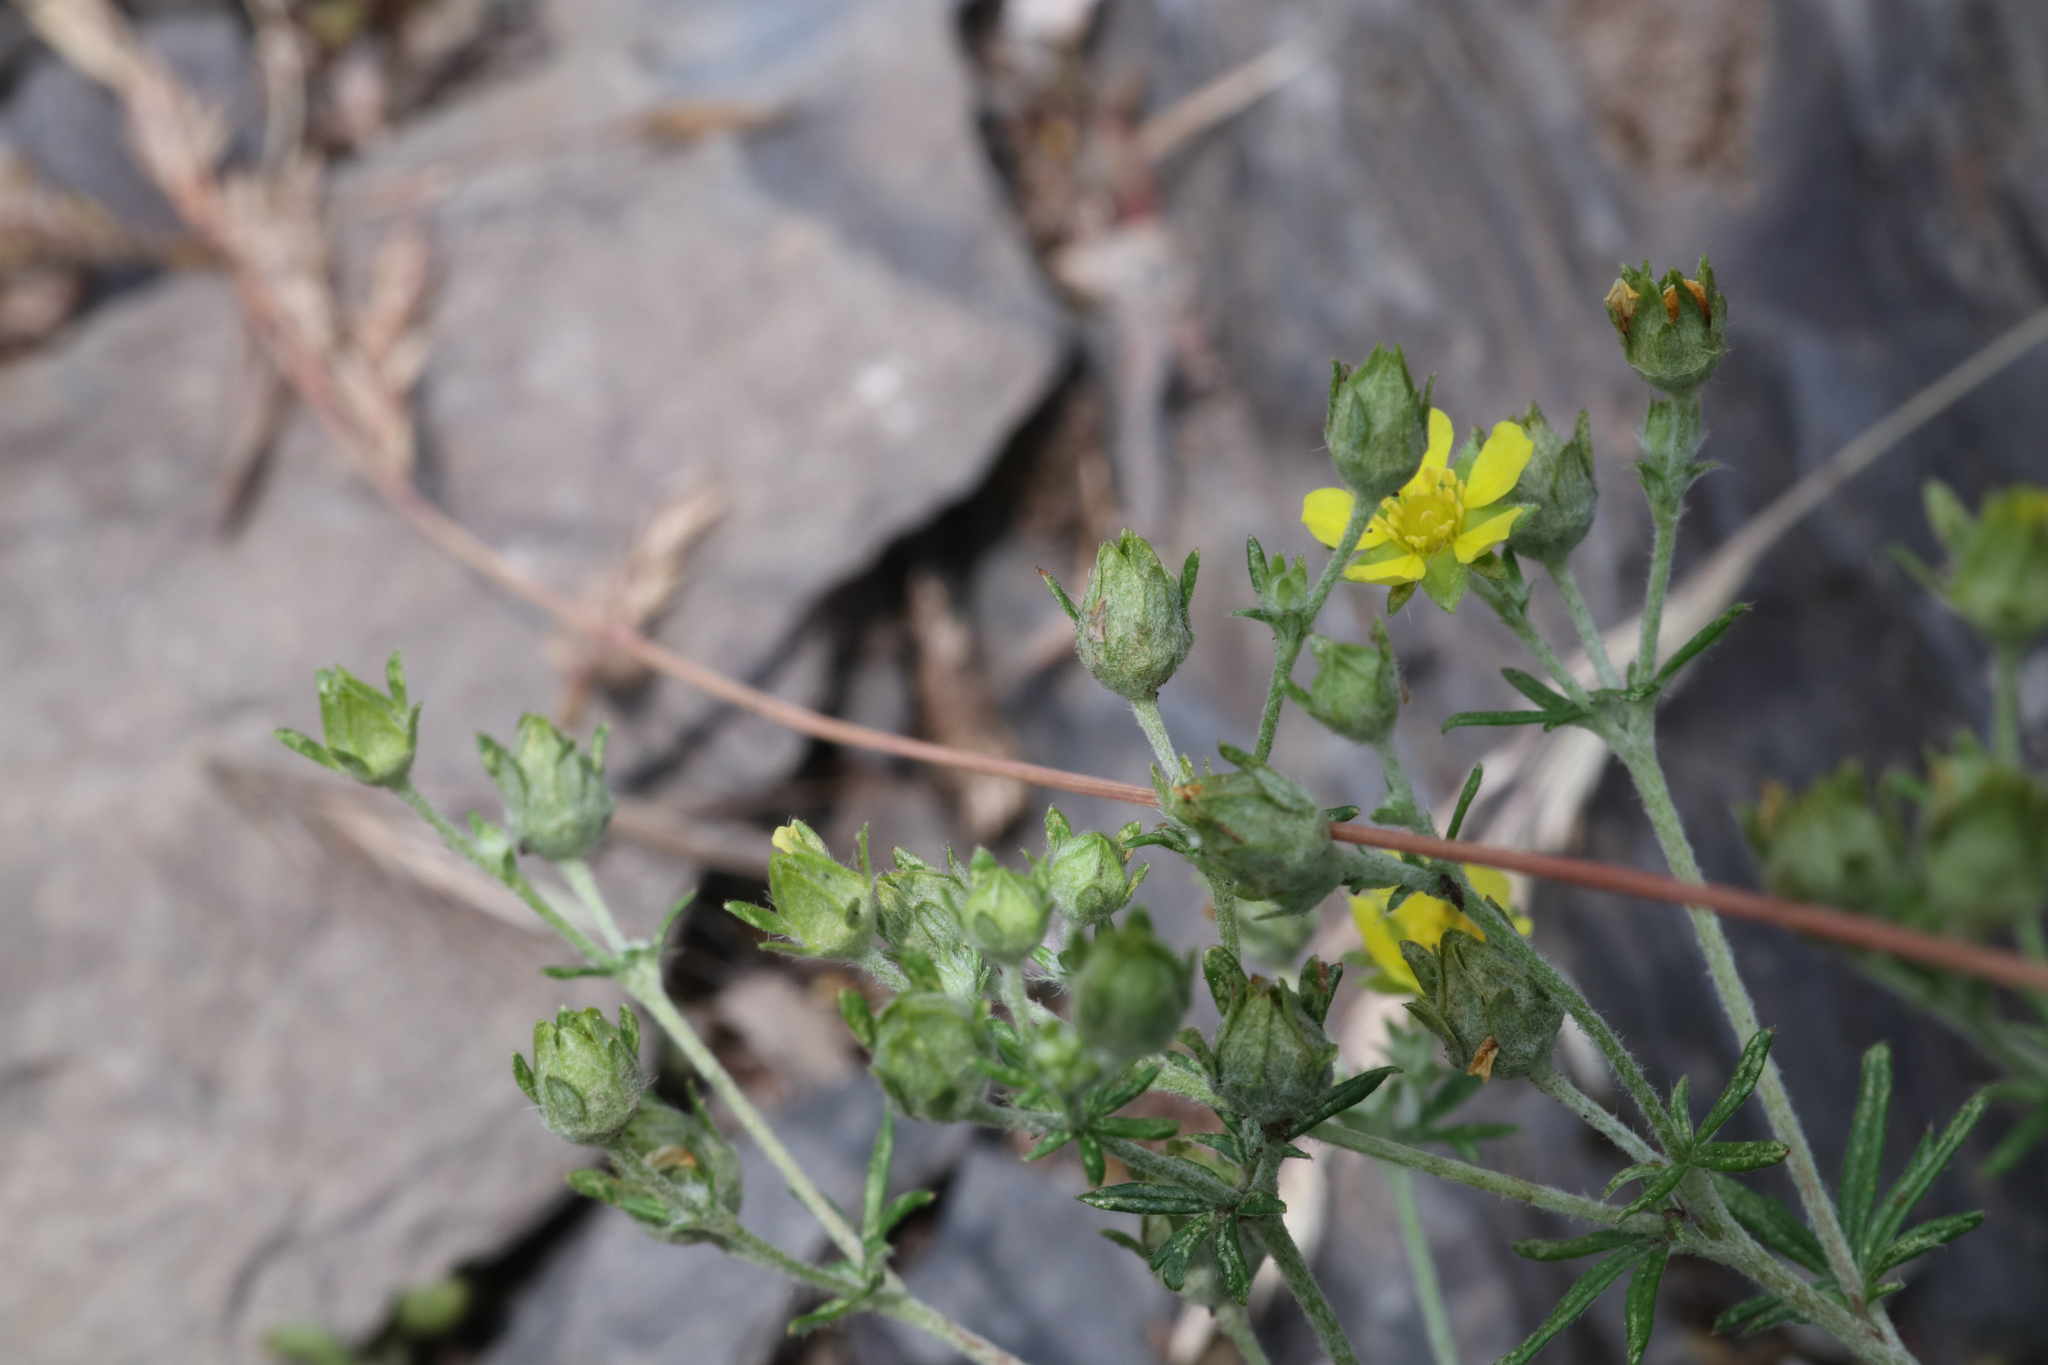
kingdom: Plantae
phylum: Tracheophyta
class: Magnoliopsida
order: Rosales
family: Rosaceae
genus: Potentilla
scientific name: Potentilla argentea
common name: Hoary cinquefoil
